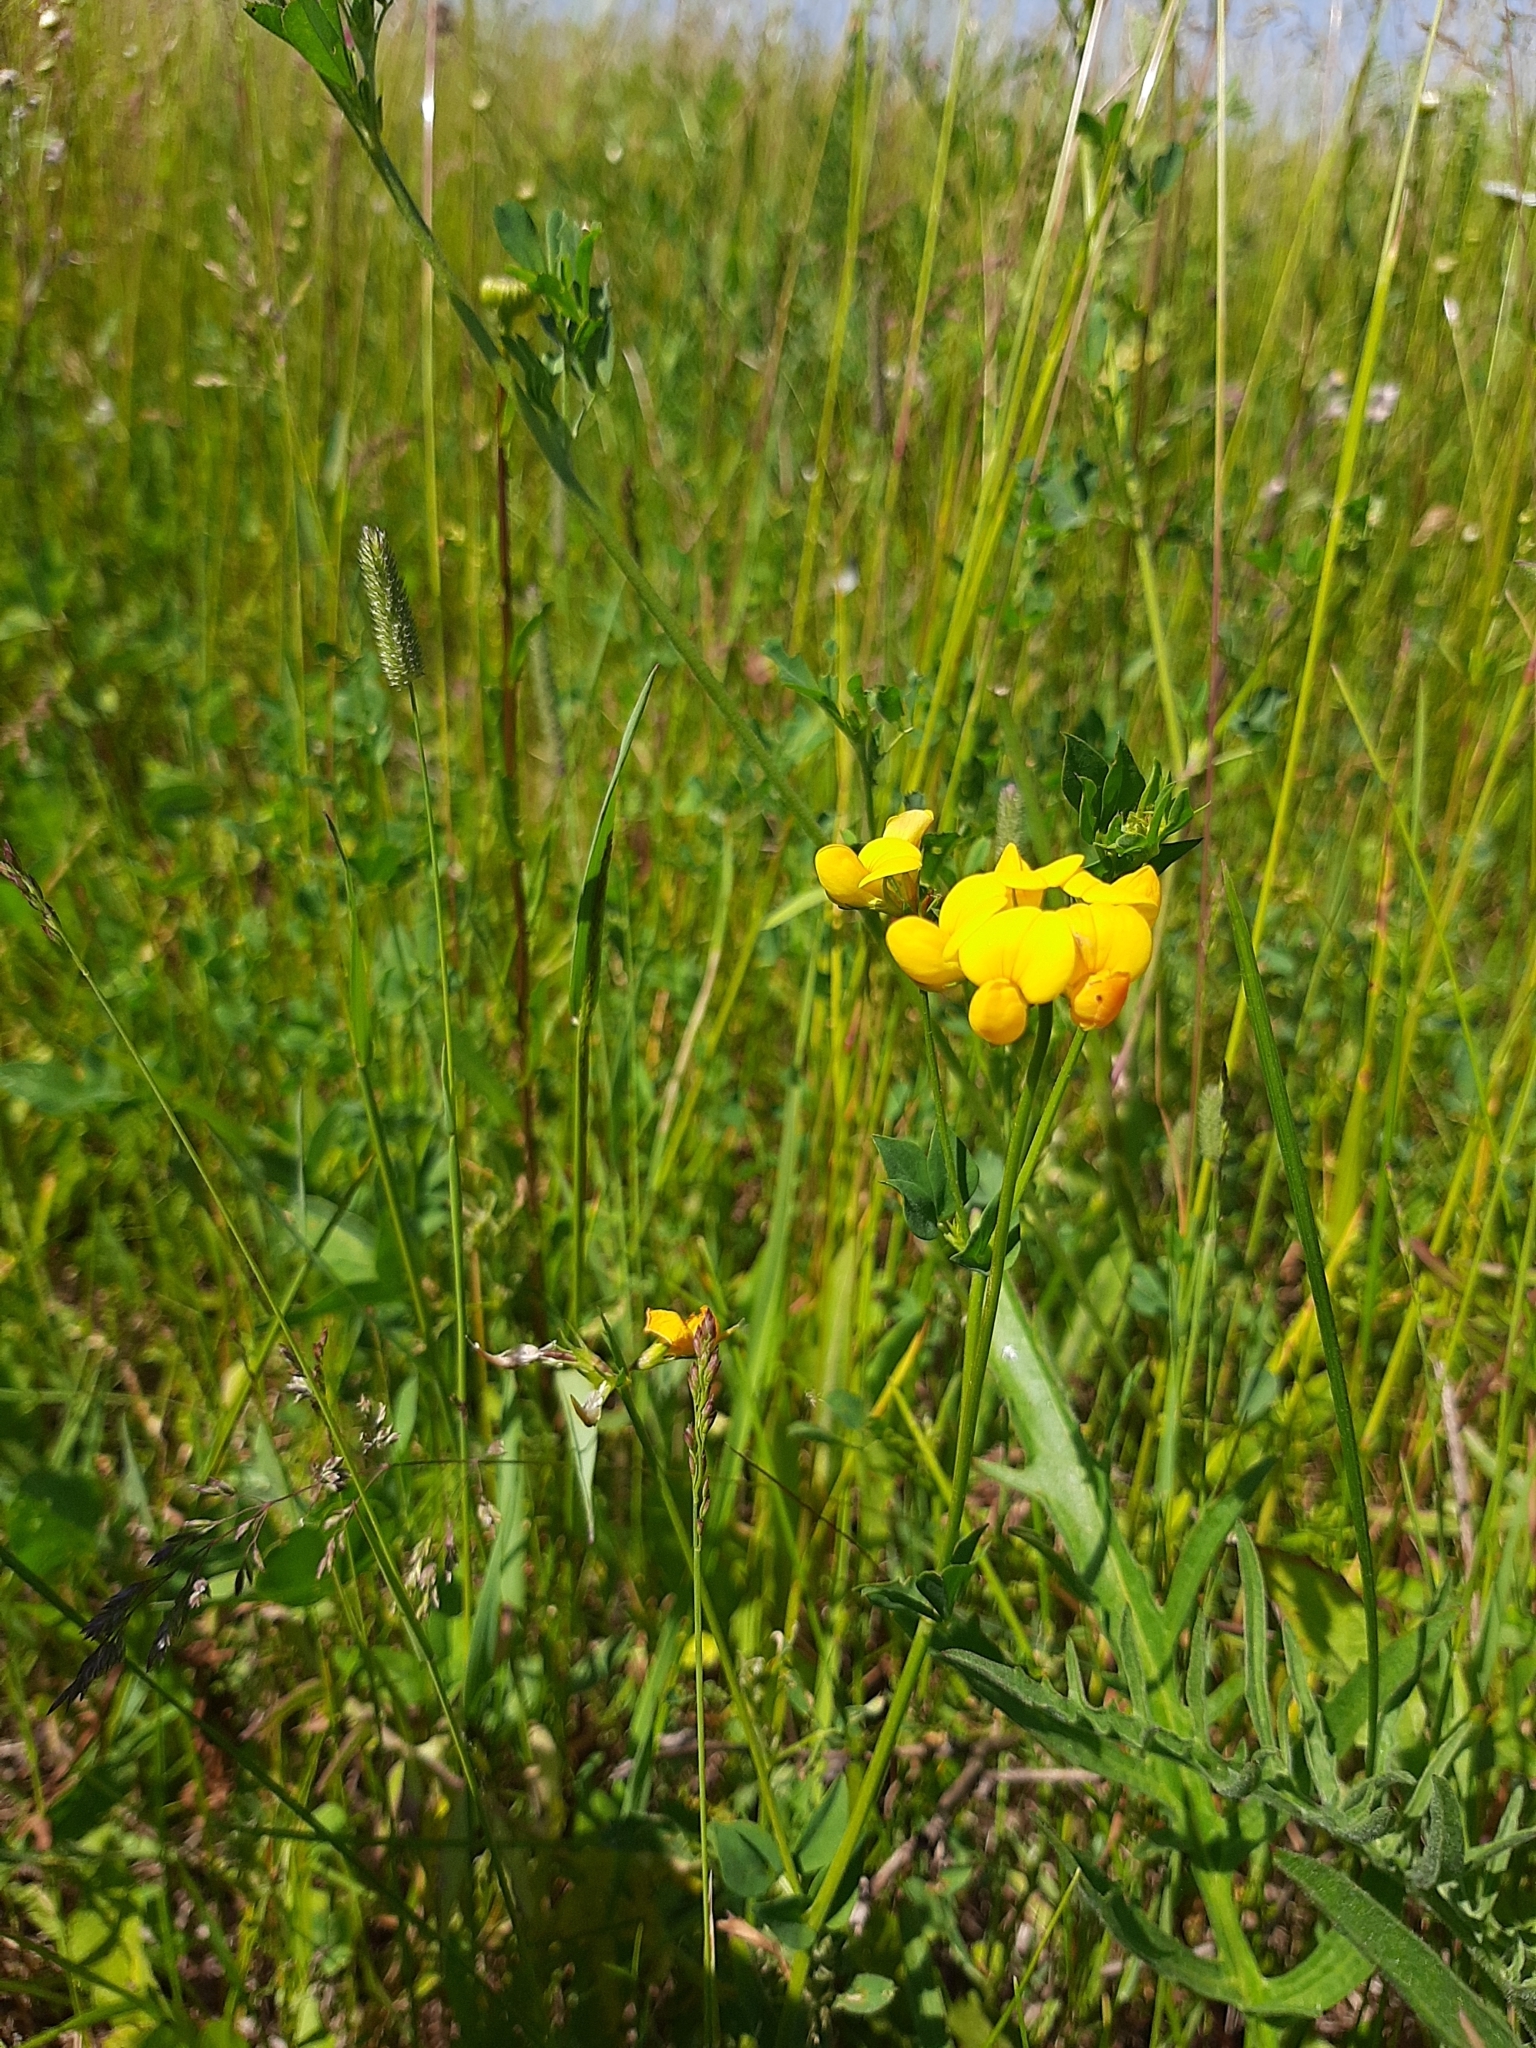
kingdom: Plantae
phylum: Tracheophyta
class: Magnoliopsida
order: Fabales
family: Fabaceae
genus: Lotus
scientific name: Lotus corniculatus
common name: Common bird's-foot-trefoil
